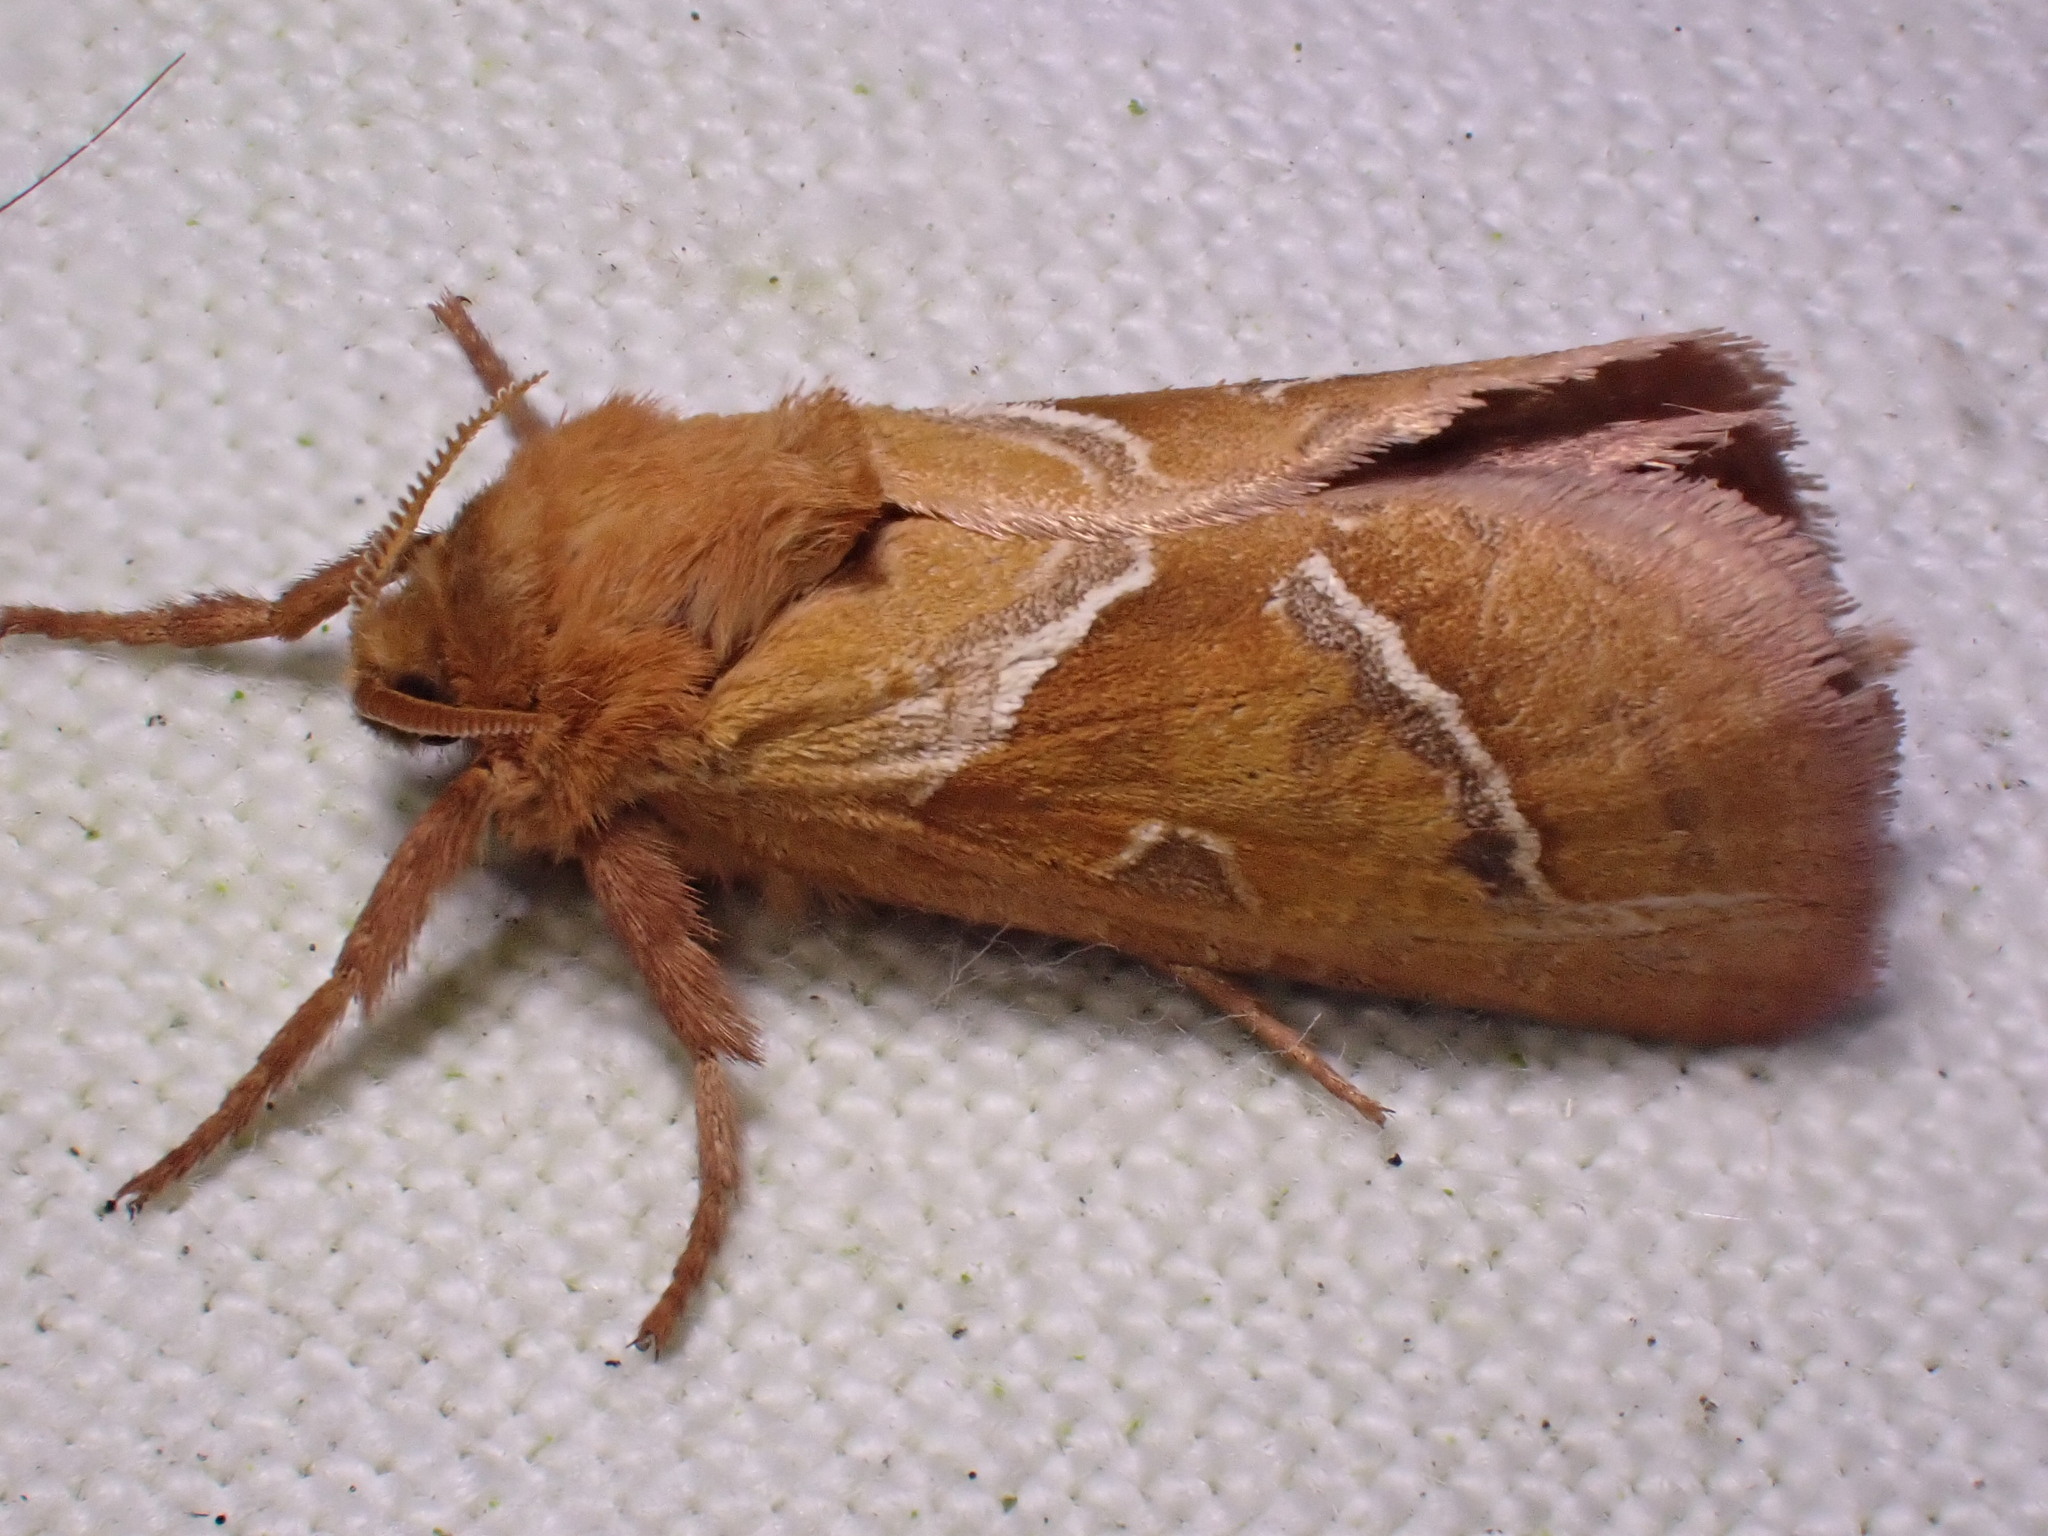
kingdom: Animalia
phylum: Arthropoda
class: Insecta
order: Lepidoptera
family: Hepialidae
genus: Triodia
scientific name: Triodia sylvina
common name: Orange swift
